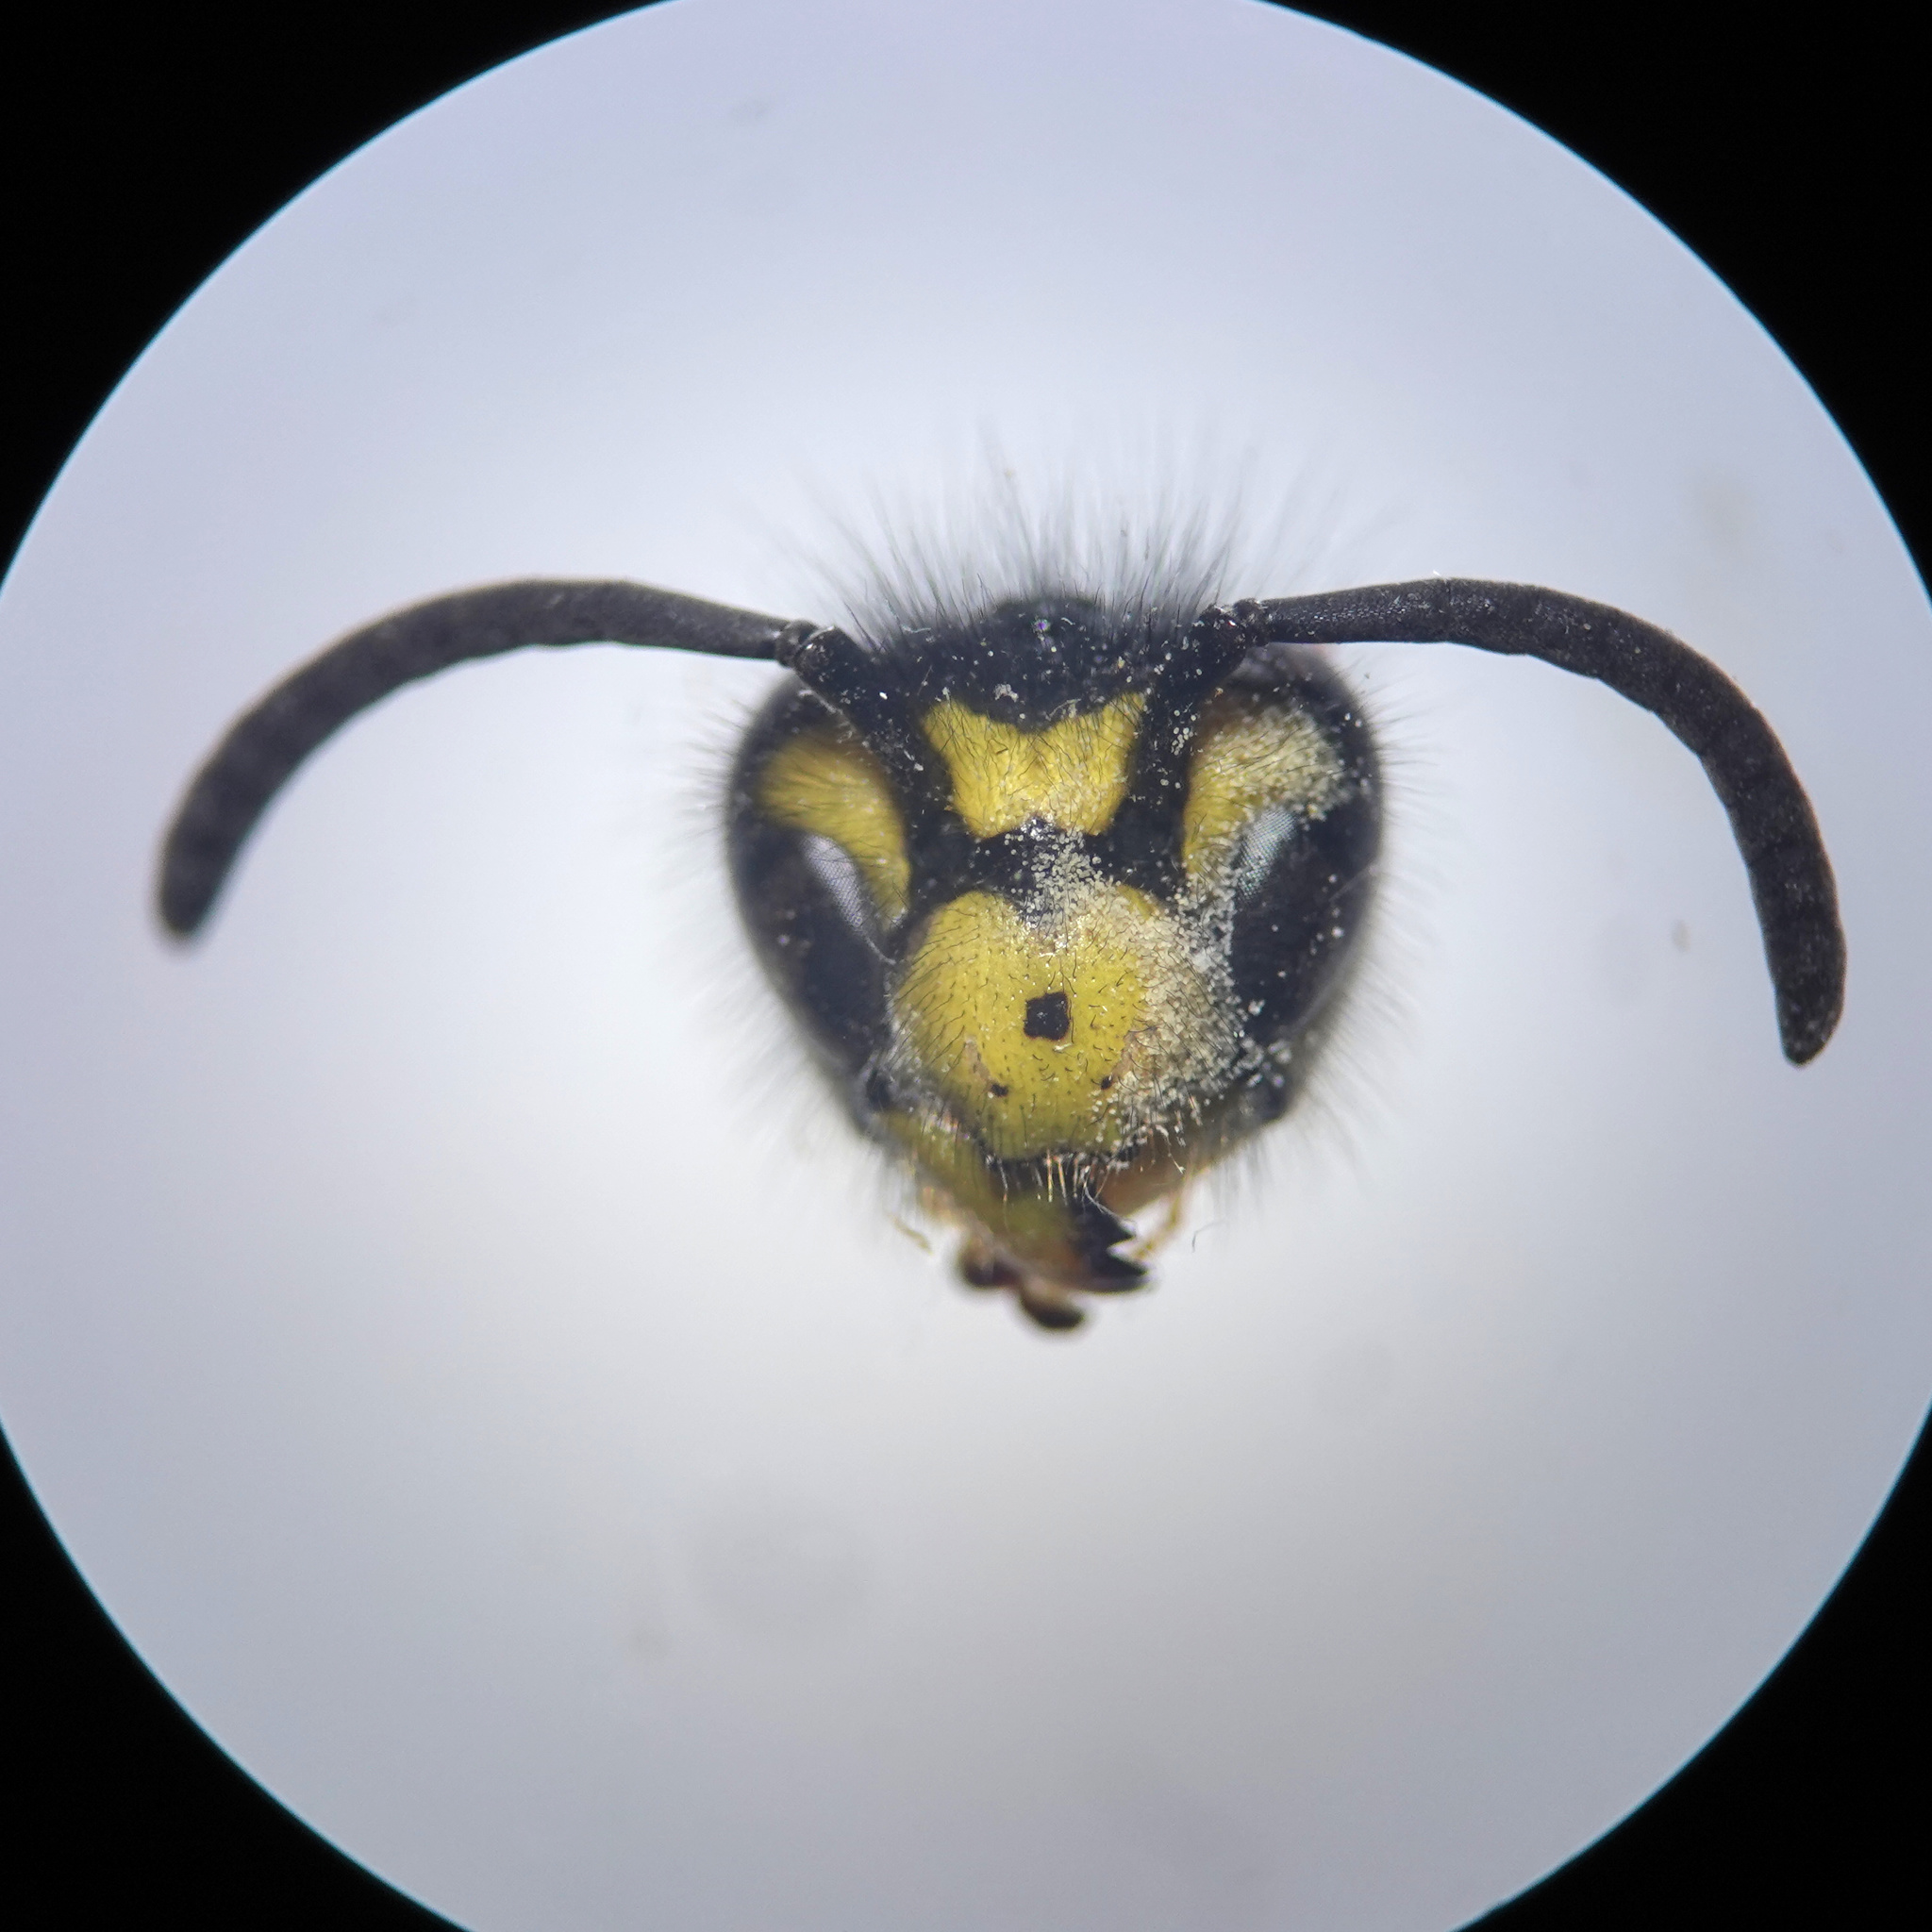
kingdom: Animalia
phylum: Arthropoda
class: Insecta
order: Hymenoptera
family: Vespidae
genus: Vespula
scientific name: Vespula germanica
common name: German wasp
